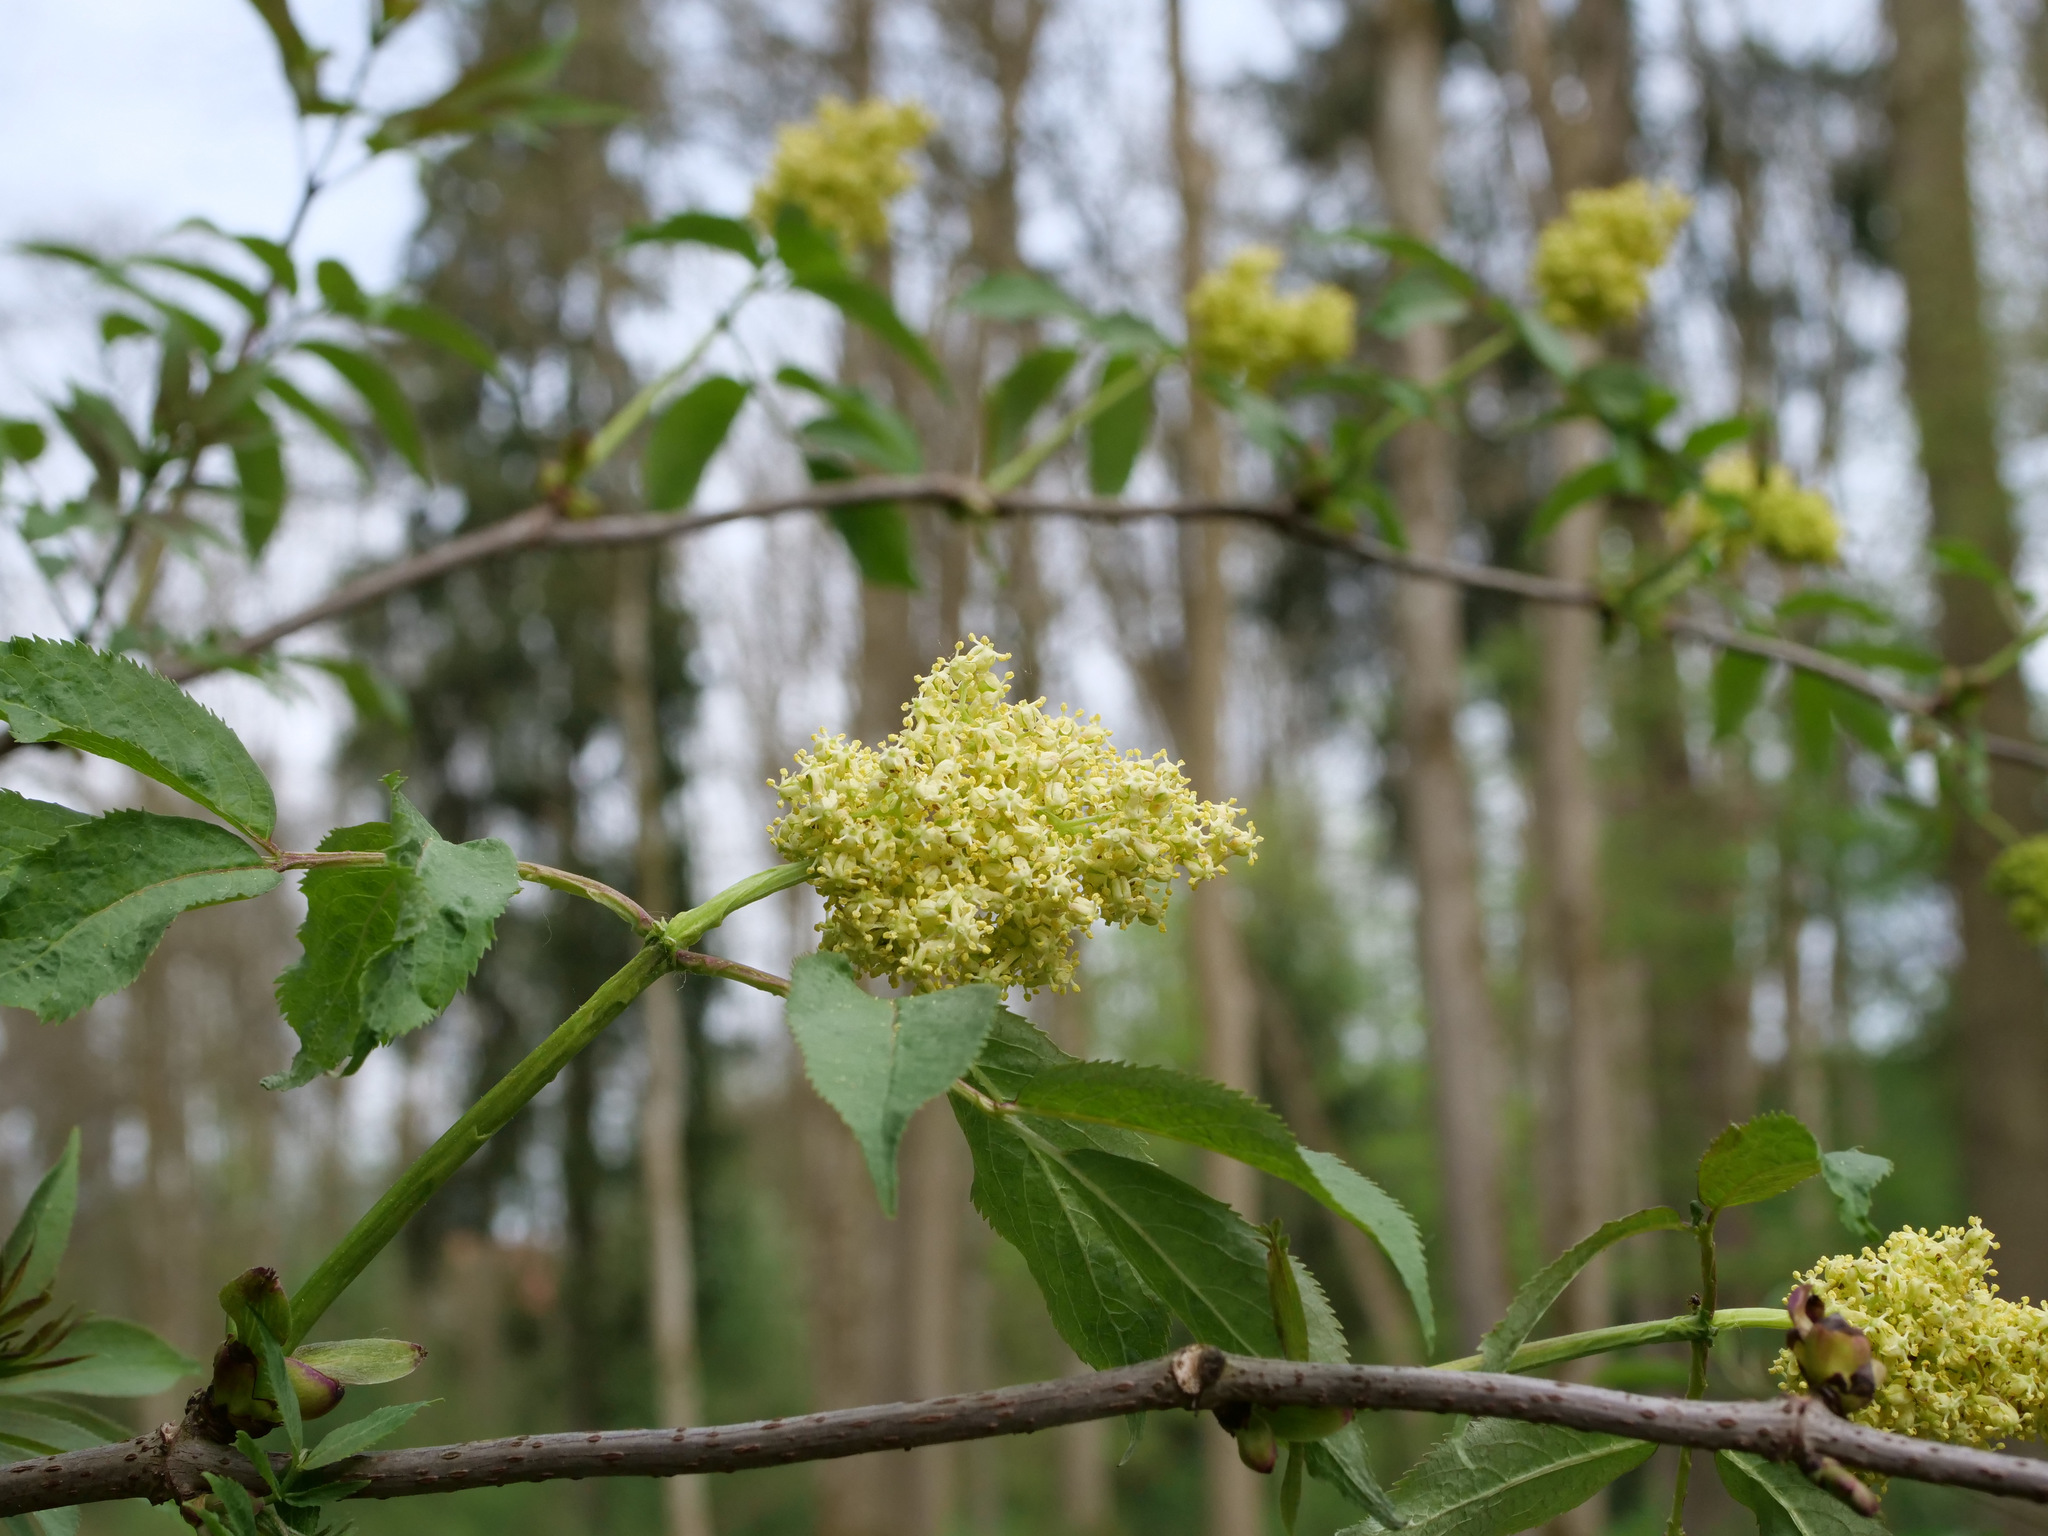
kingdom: Plantae
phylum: Tracheophyta
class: Magnoliopsida
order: Dipsacales
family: Viburnaceae
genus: Sambucus
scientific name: Sambucus racemosa
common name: Red-berried elder
